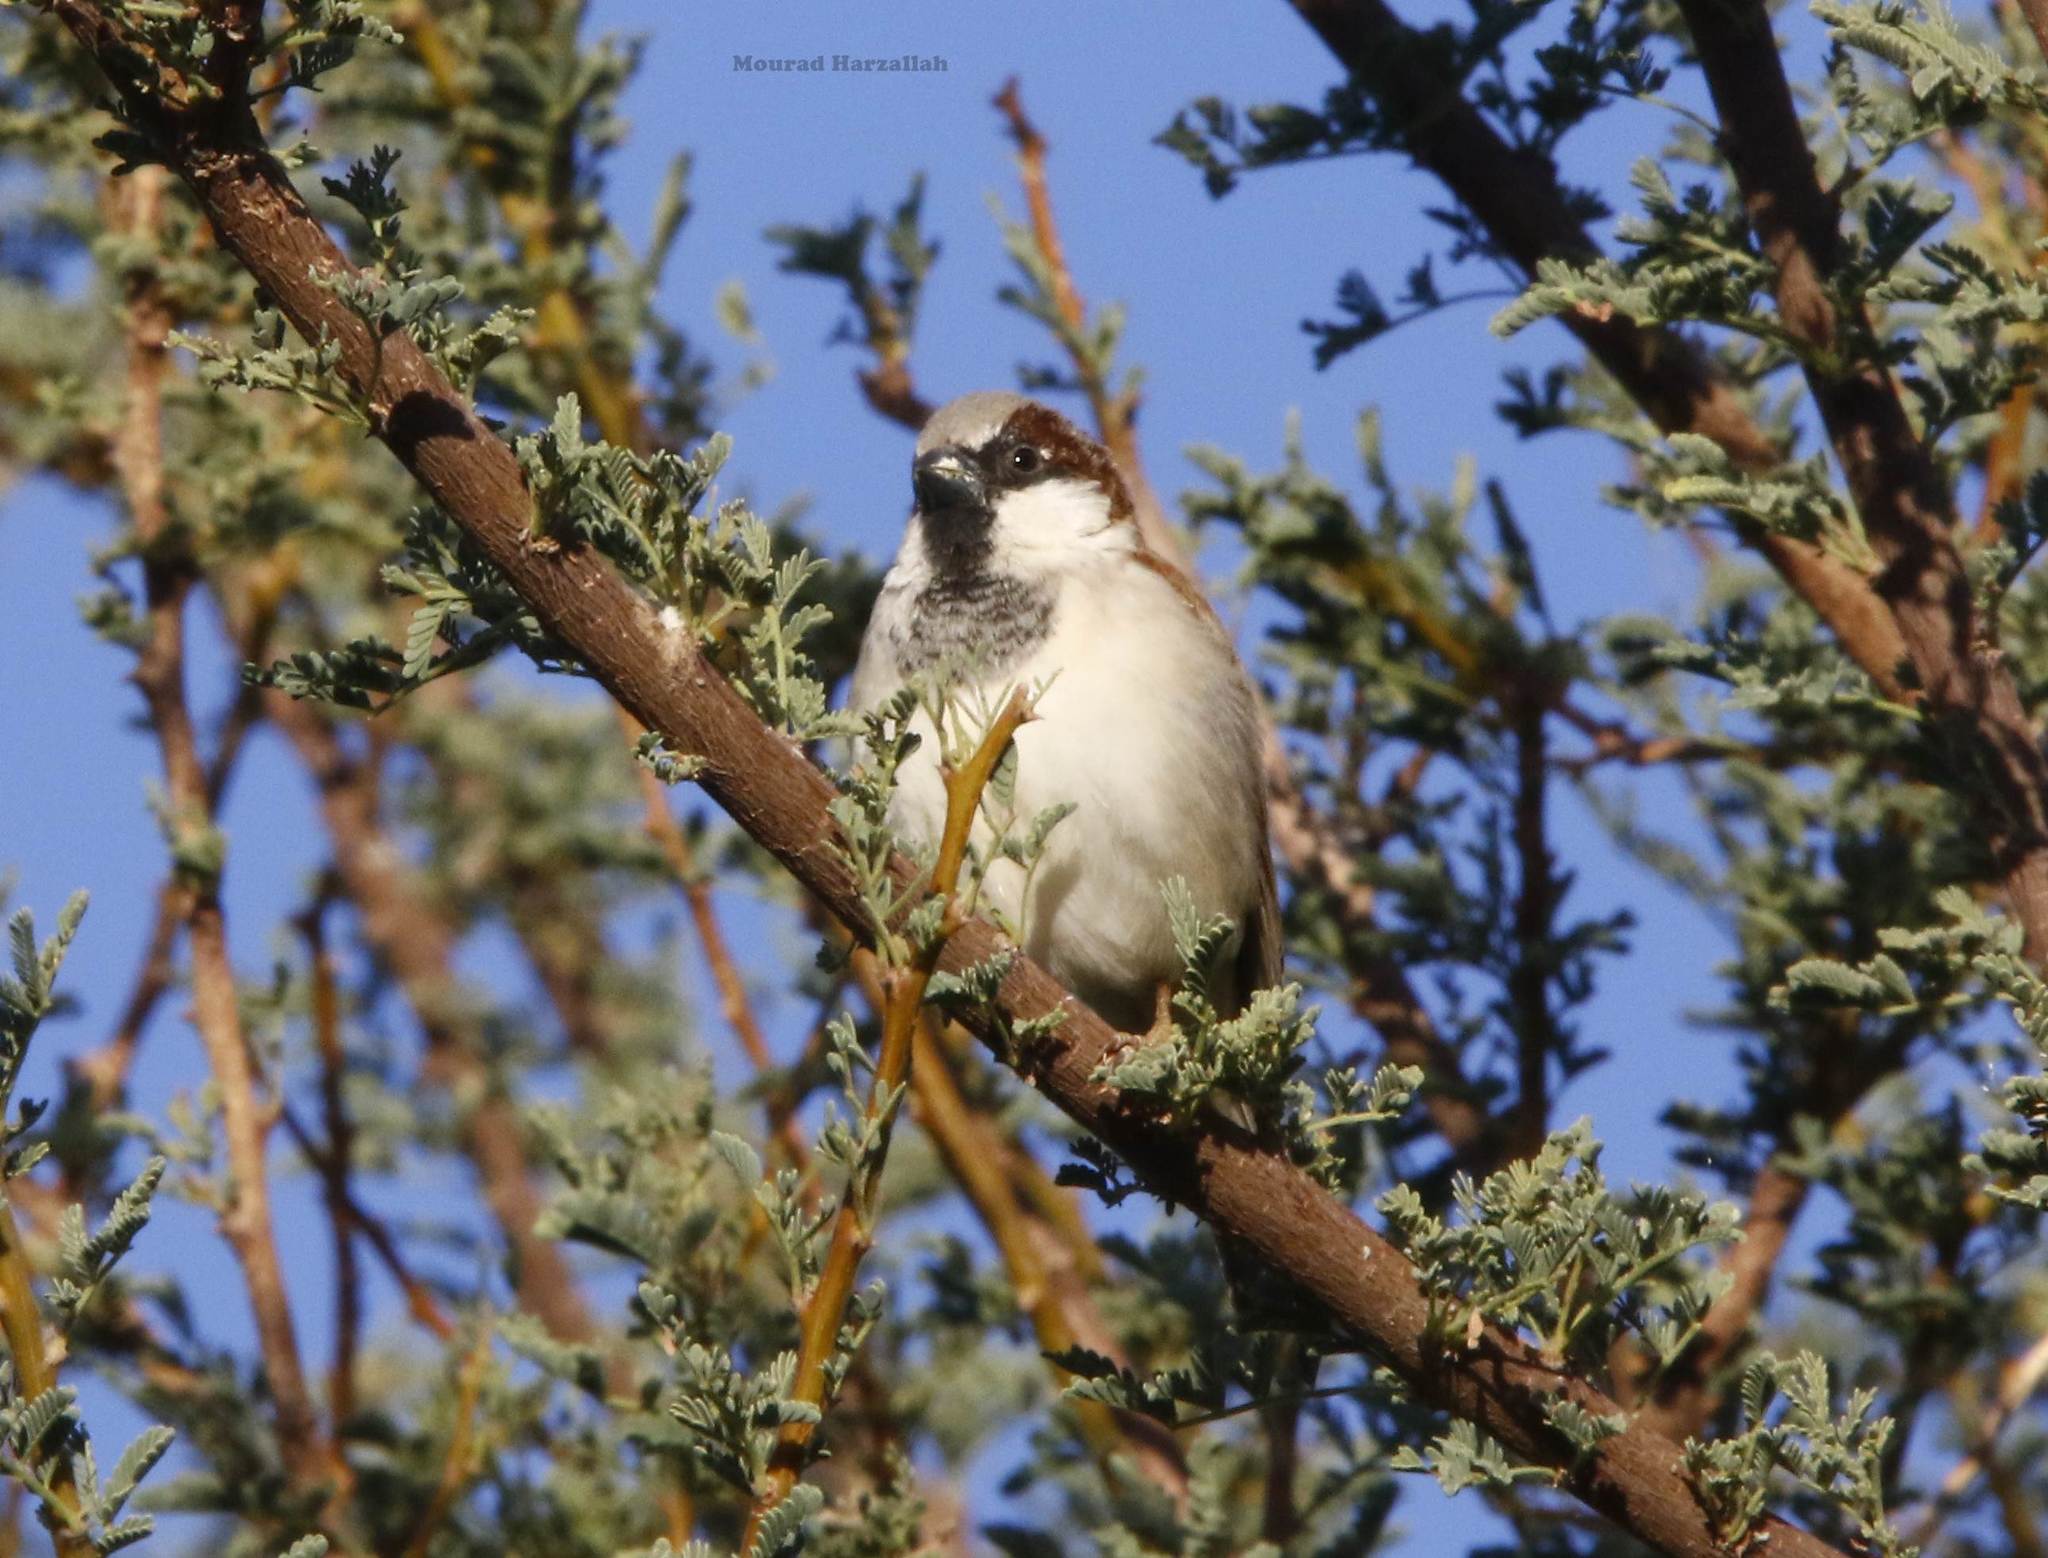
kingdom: Animalia
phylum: Chordata
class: Aves
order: Passeriformes
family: Passeridae
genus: Passer
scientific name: Passer domesticus
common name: House sparrow
